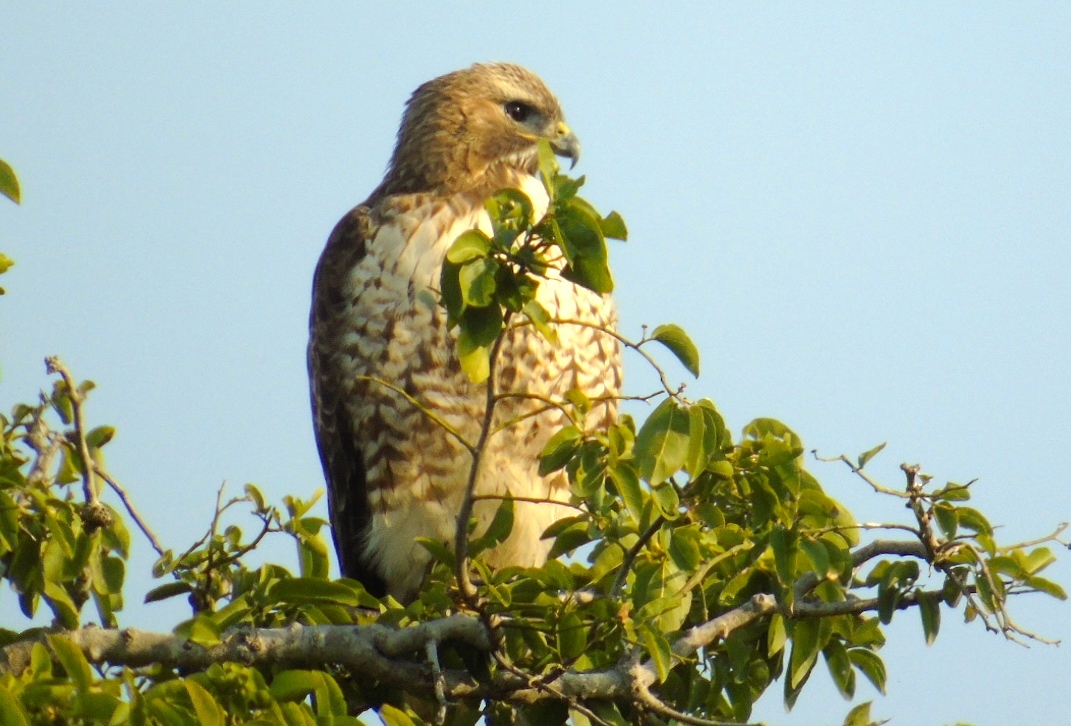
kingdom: Animalia
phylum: Chordata
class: Aves
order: Accipitriformes
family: Accipitridae
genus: Buteo
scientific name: Buteo jamaicensis
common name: Red-tailed hawk
